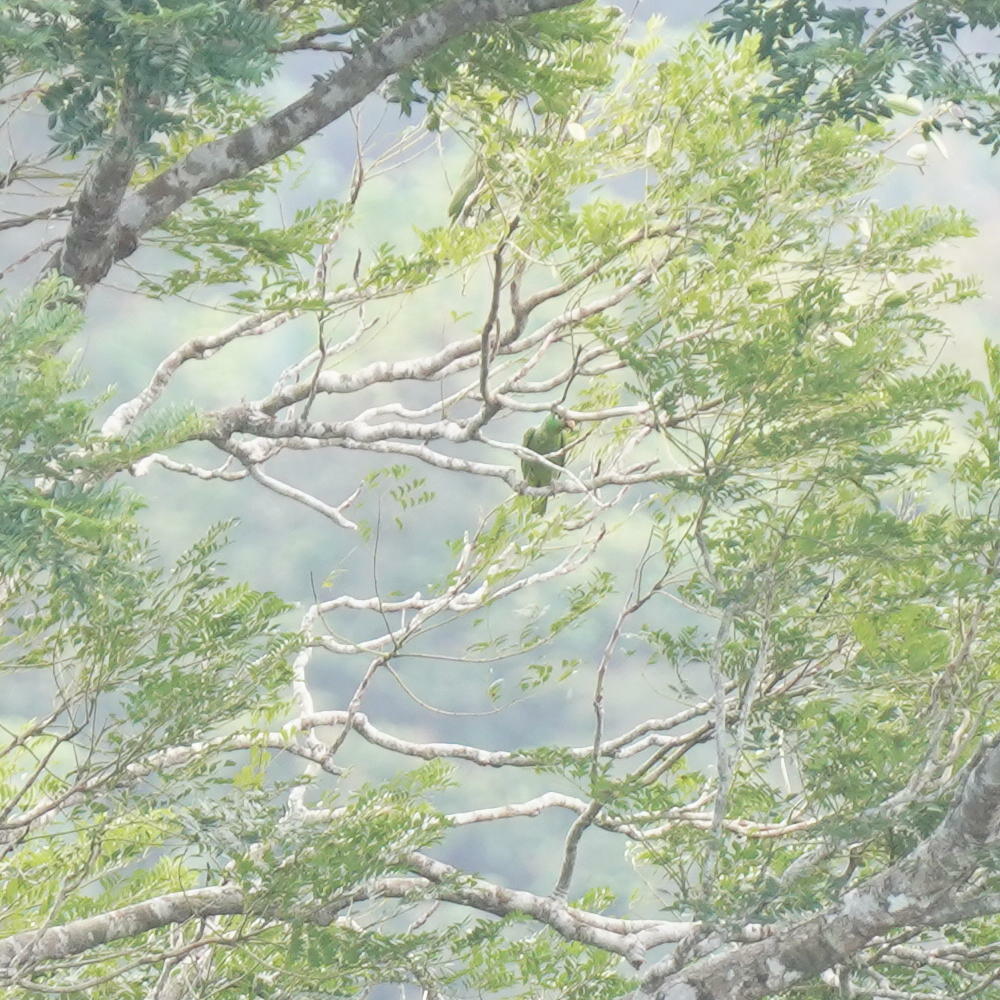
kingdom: Animalia
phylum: Chordata
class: Aves
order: Psittaciformes
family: Psittacidae
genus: Amazona
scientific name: Amazona autumnalis
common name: Red-lored amazon
